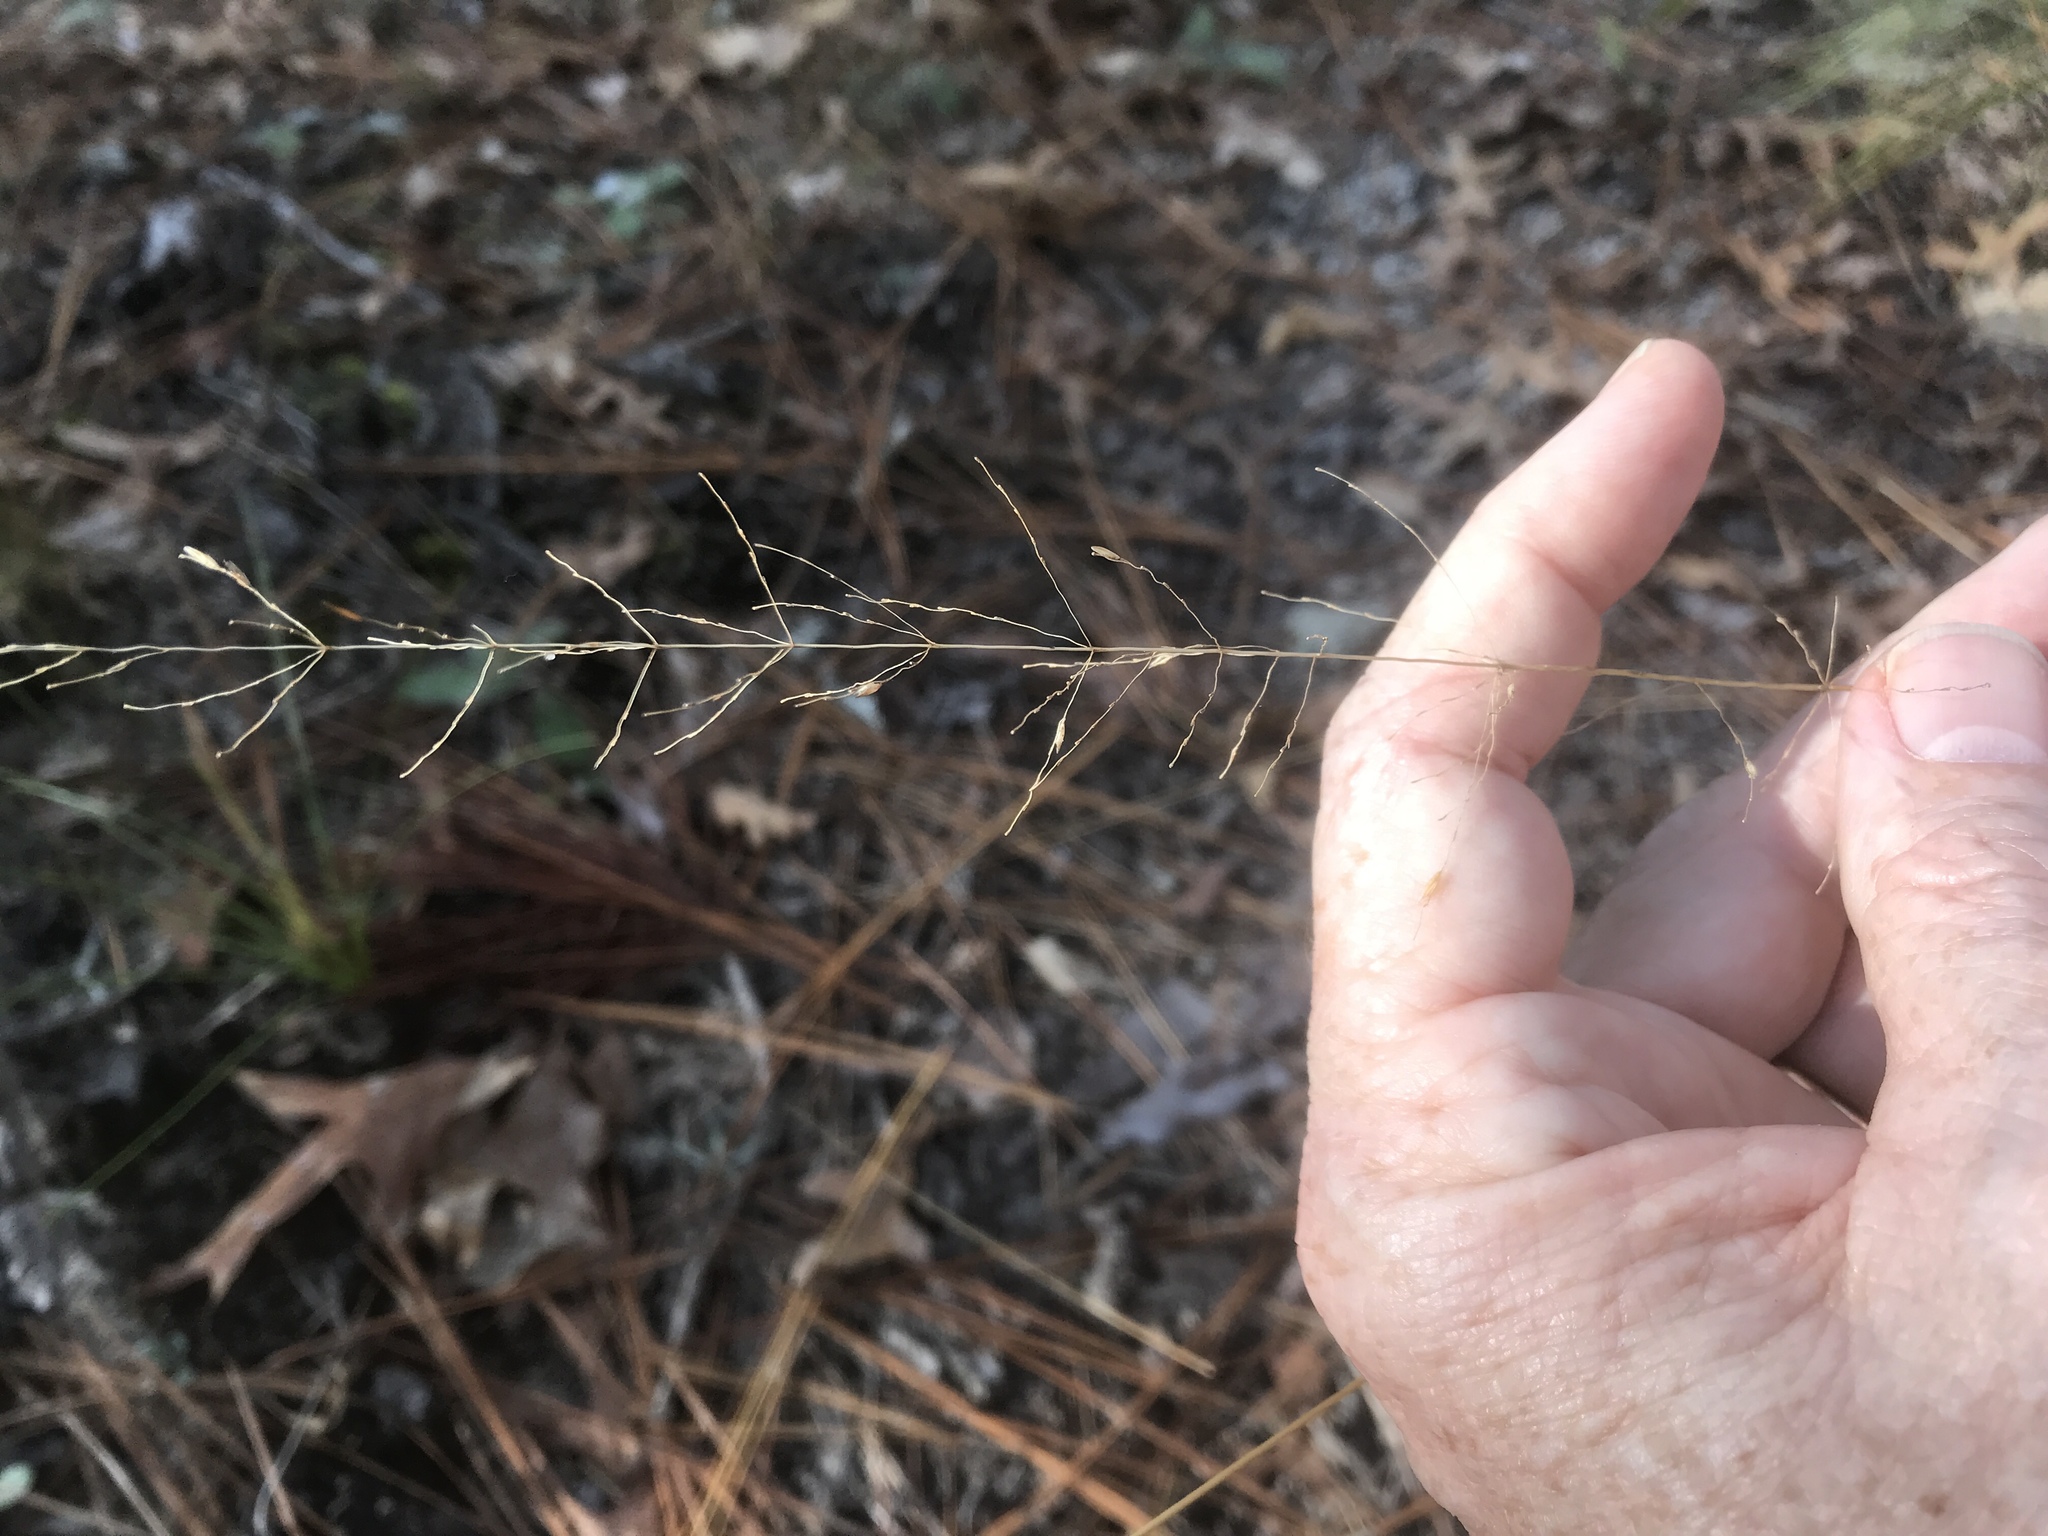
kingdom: Plantae
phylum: Tracheophyta
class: Liliopsida
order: Poales
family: Poaceae
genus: Sporobolus
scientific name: Sporobolus junceus
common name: Lizard grass
